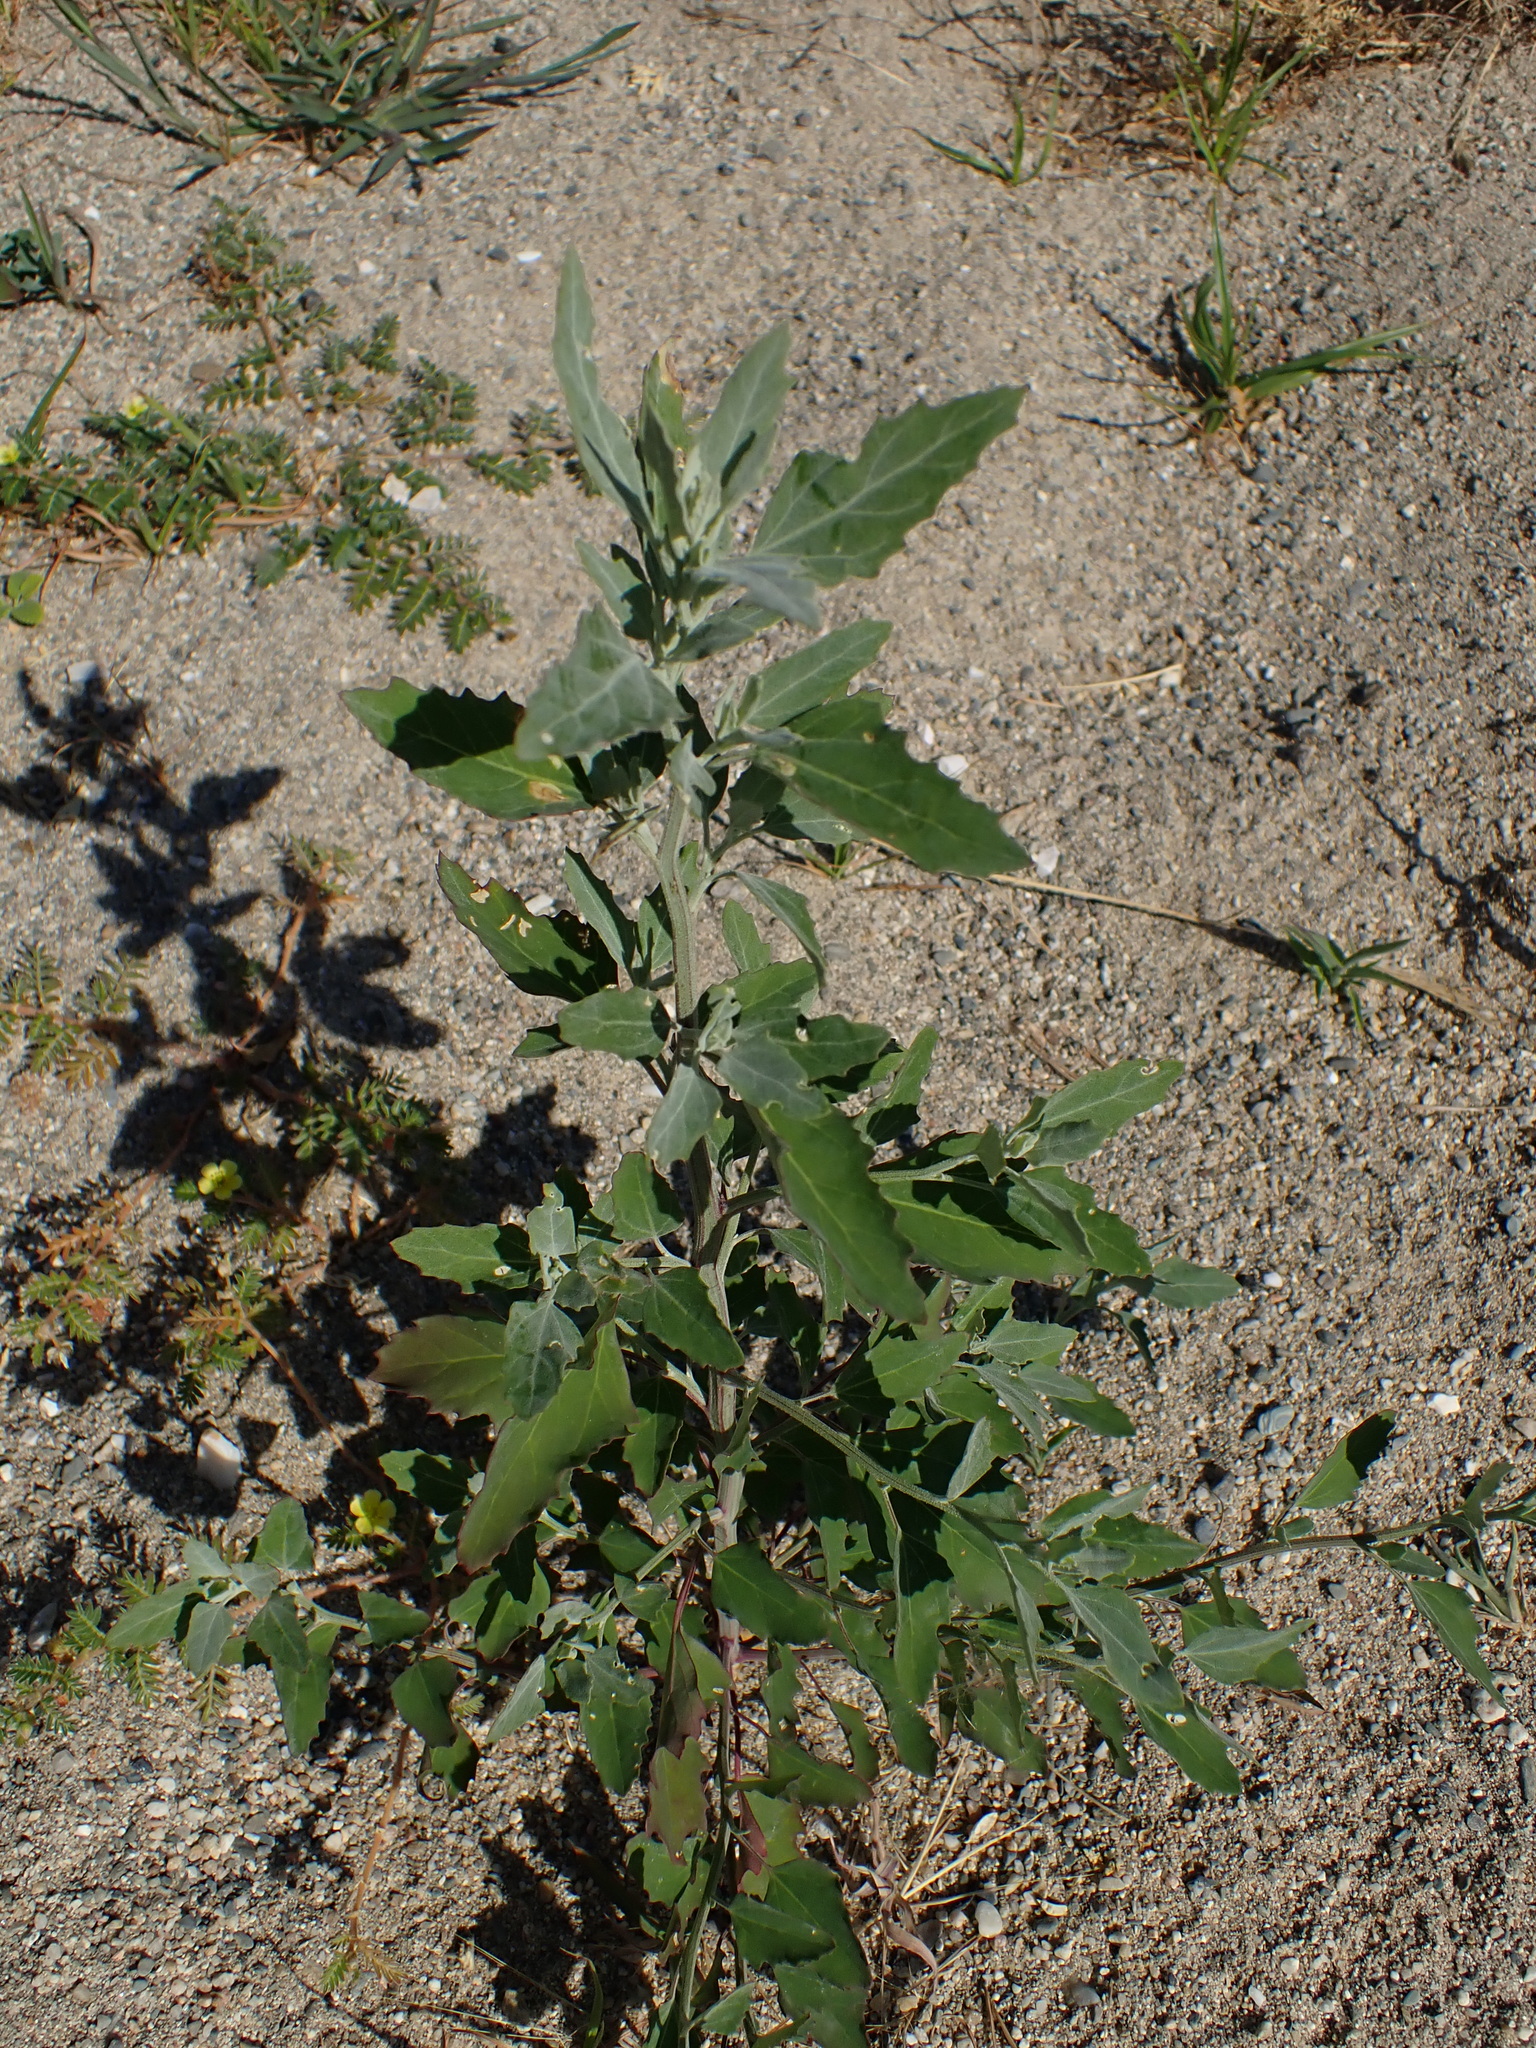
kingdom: Plantae
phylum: Tracheophyta
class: Magnoliopsida
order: Caryophyllales
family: Amaranthaceae
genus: Chenopodium
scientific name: Chenopodium album
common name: Fat-hen
